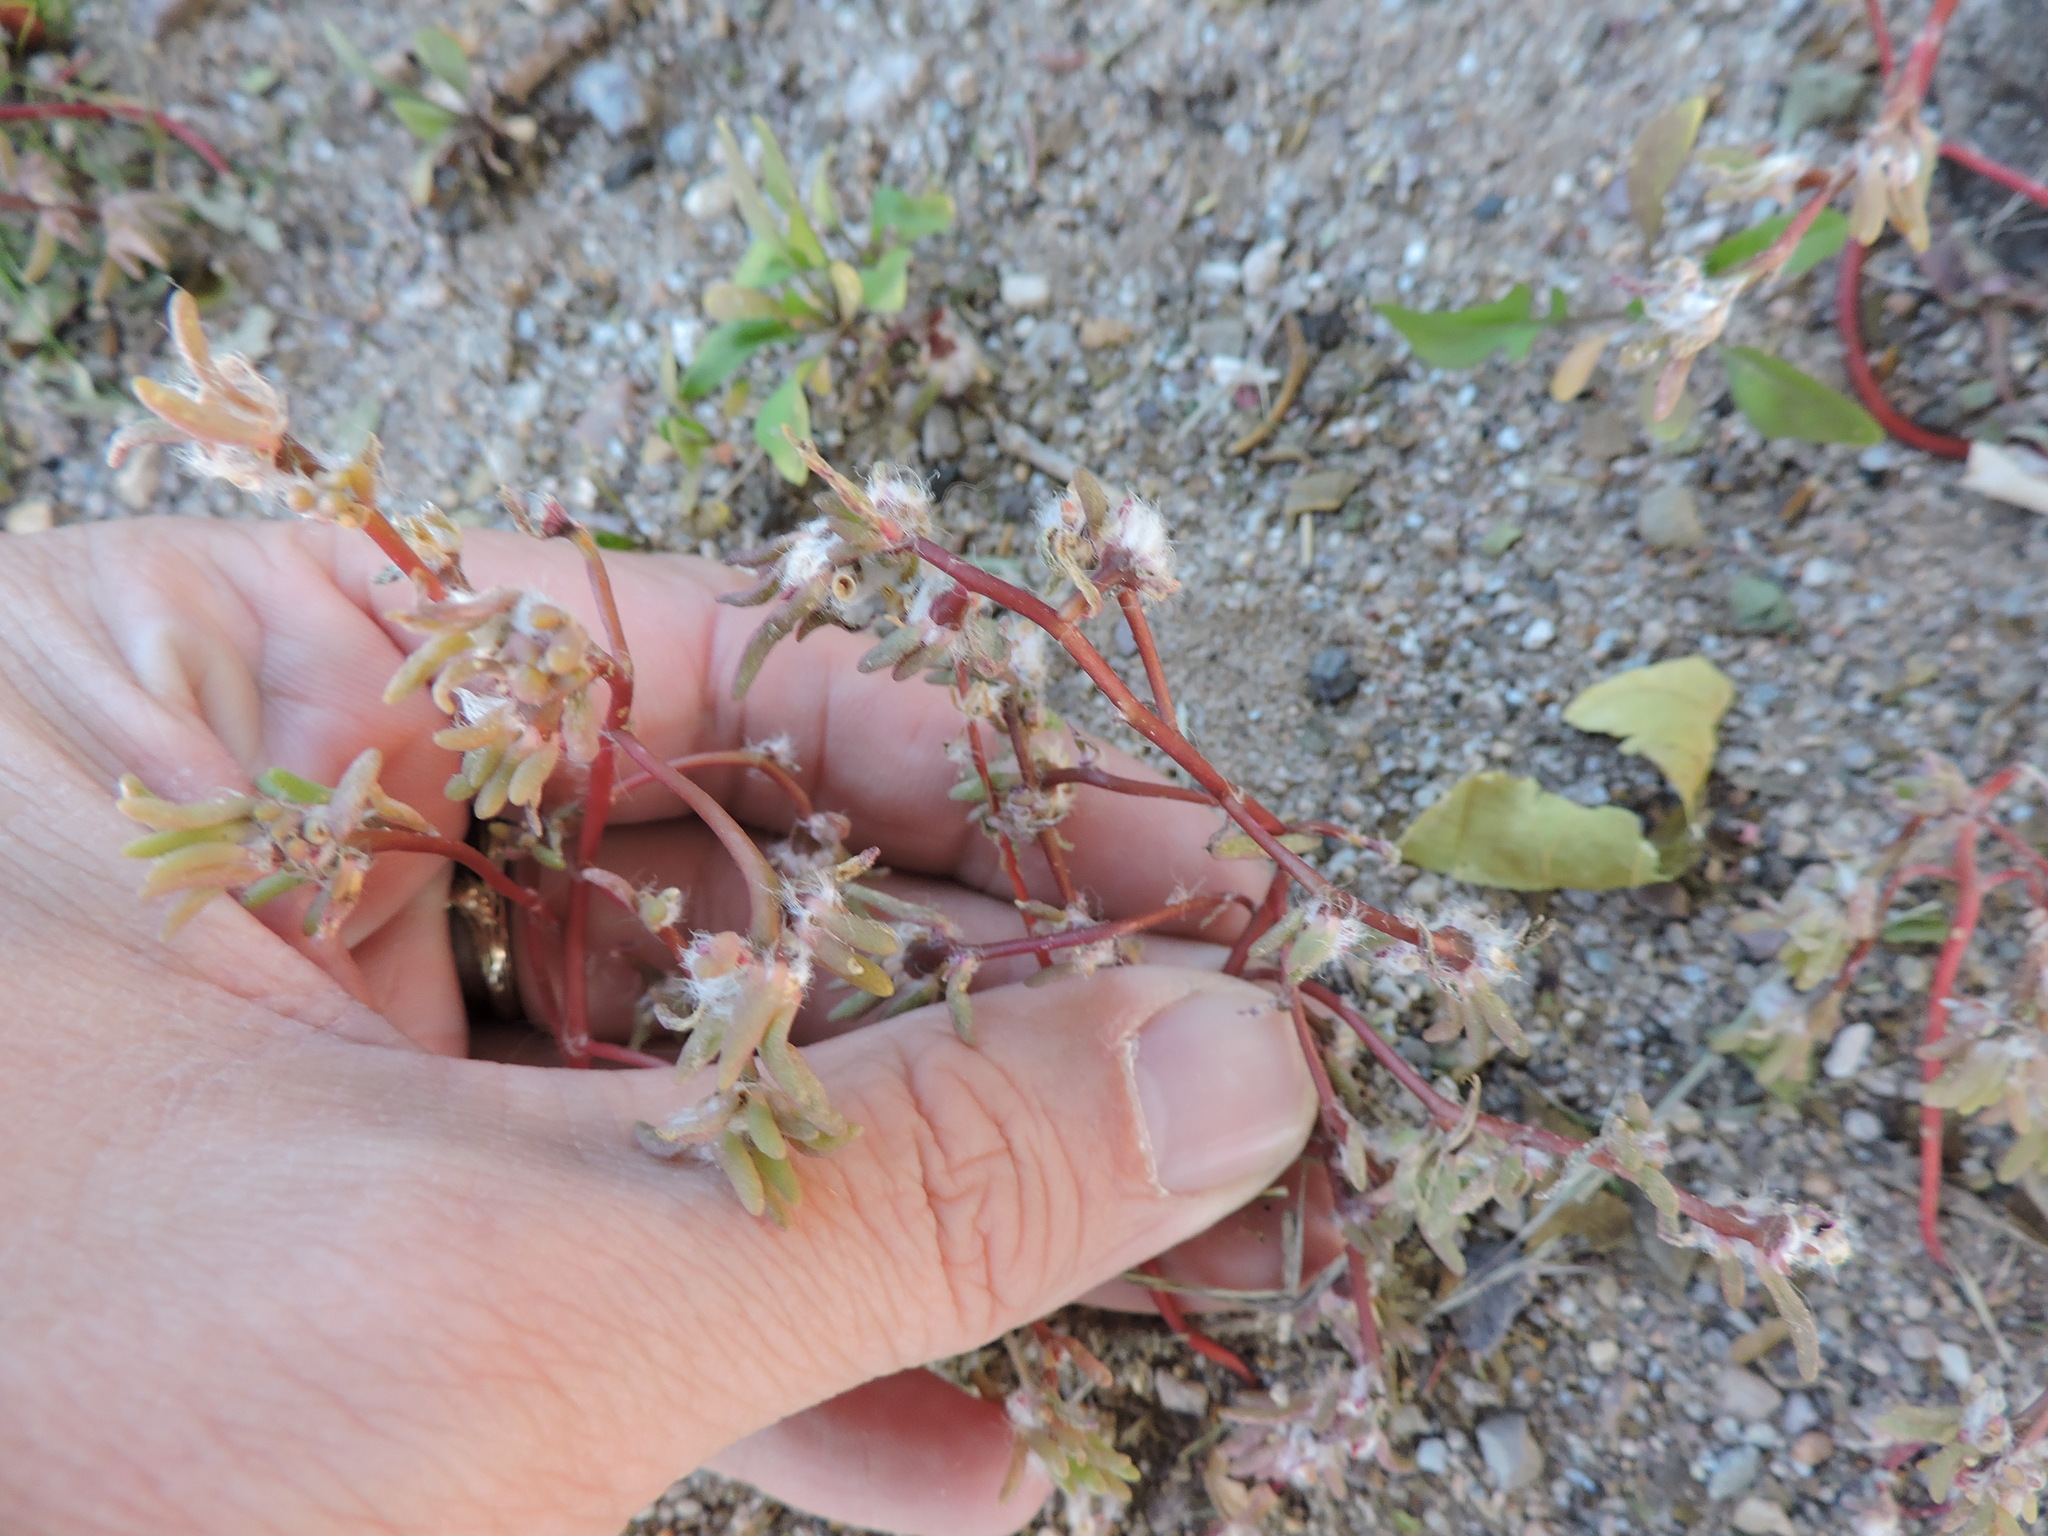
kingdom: Plantae
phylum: Tracheophyta
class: Magnoliopsida
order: Caryophyllales
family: Portulacaceae
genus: Portulaca
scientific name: Portulaca pilosa
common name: Kiss me quick
